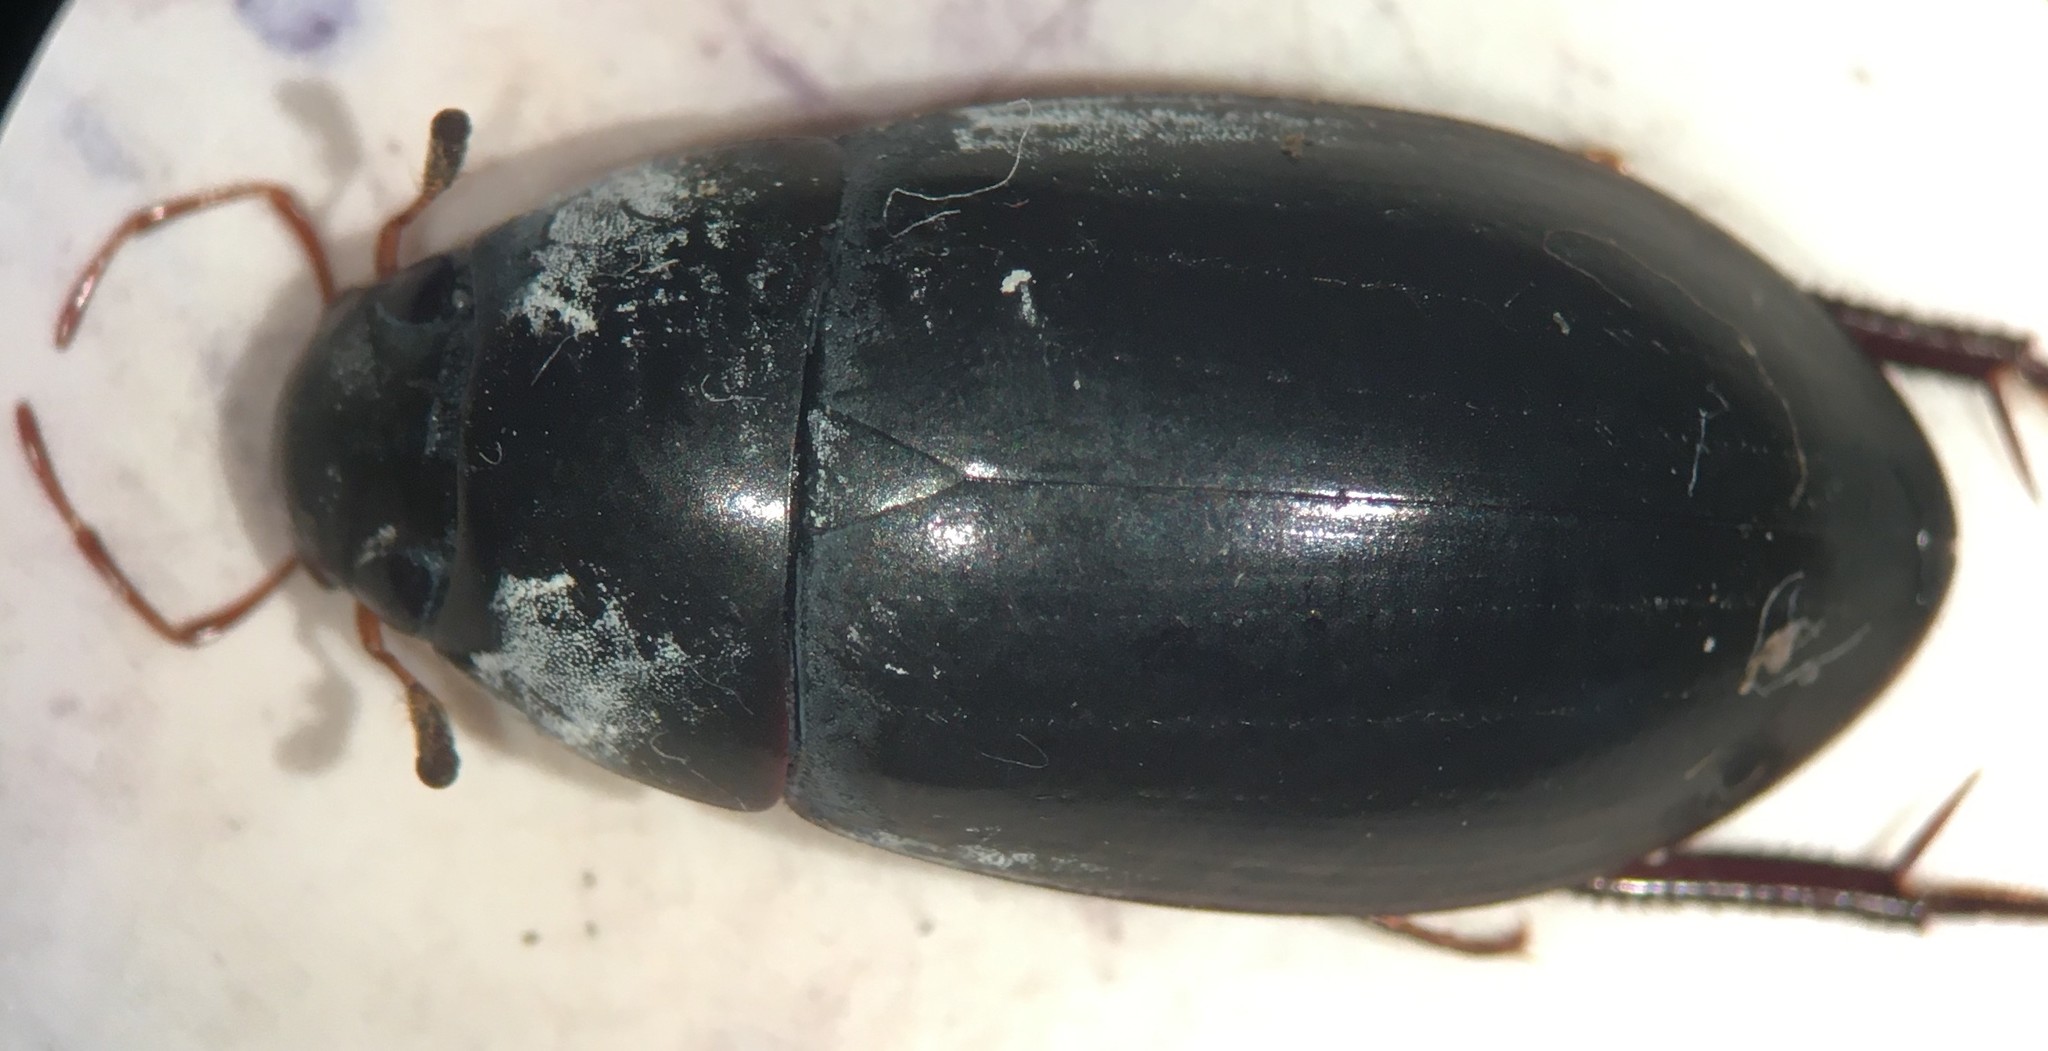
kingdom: Animalia
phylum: Arthropoda
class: Insecta
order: Coleoptera
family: Hydrophilidae
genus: Hydrobiomorpha
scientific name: Hydrobiomorpha casta
